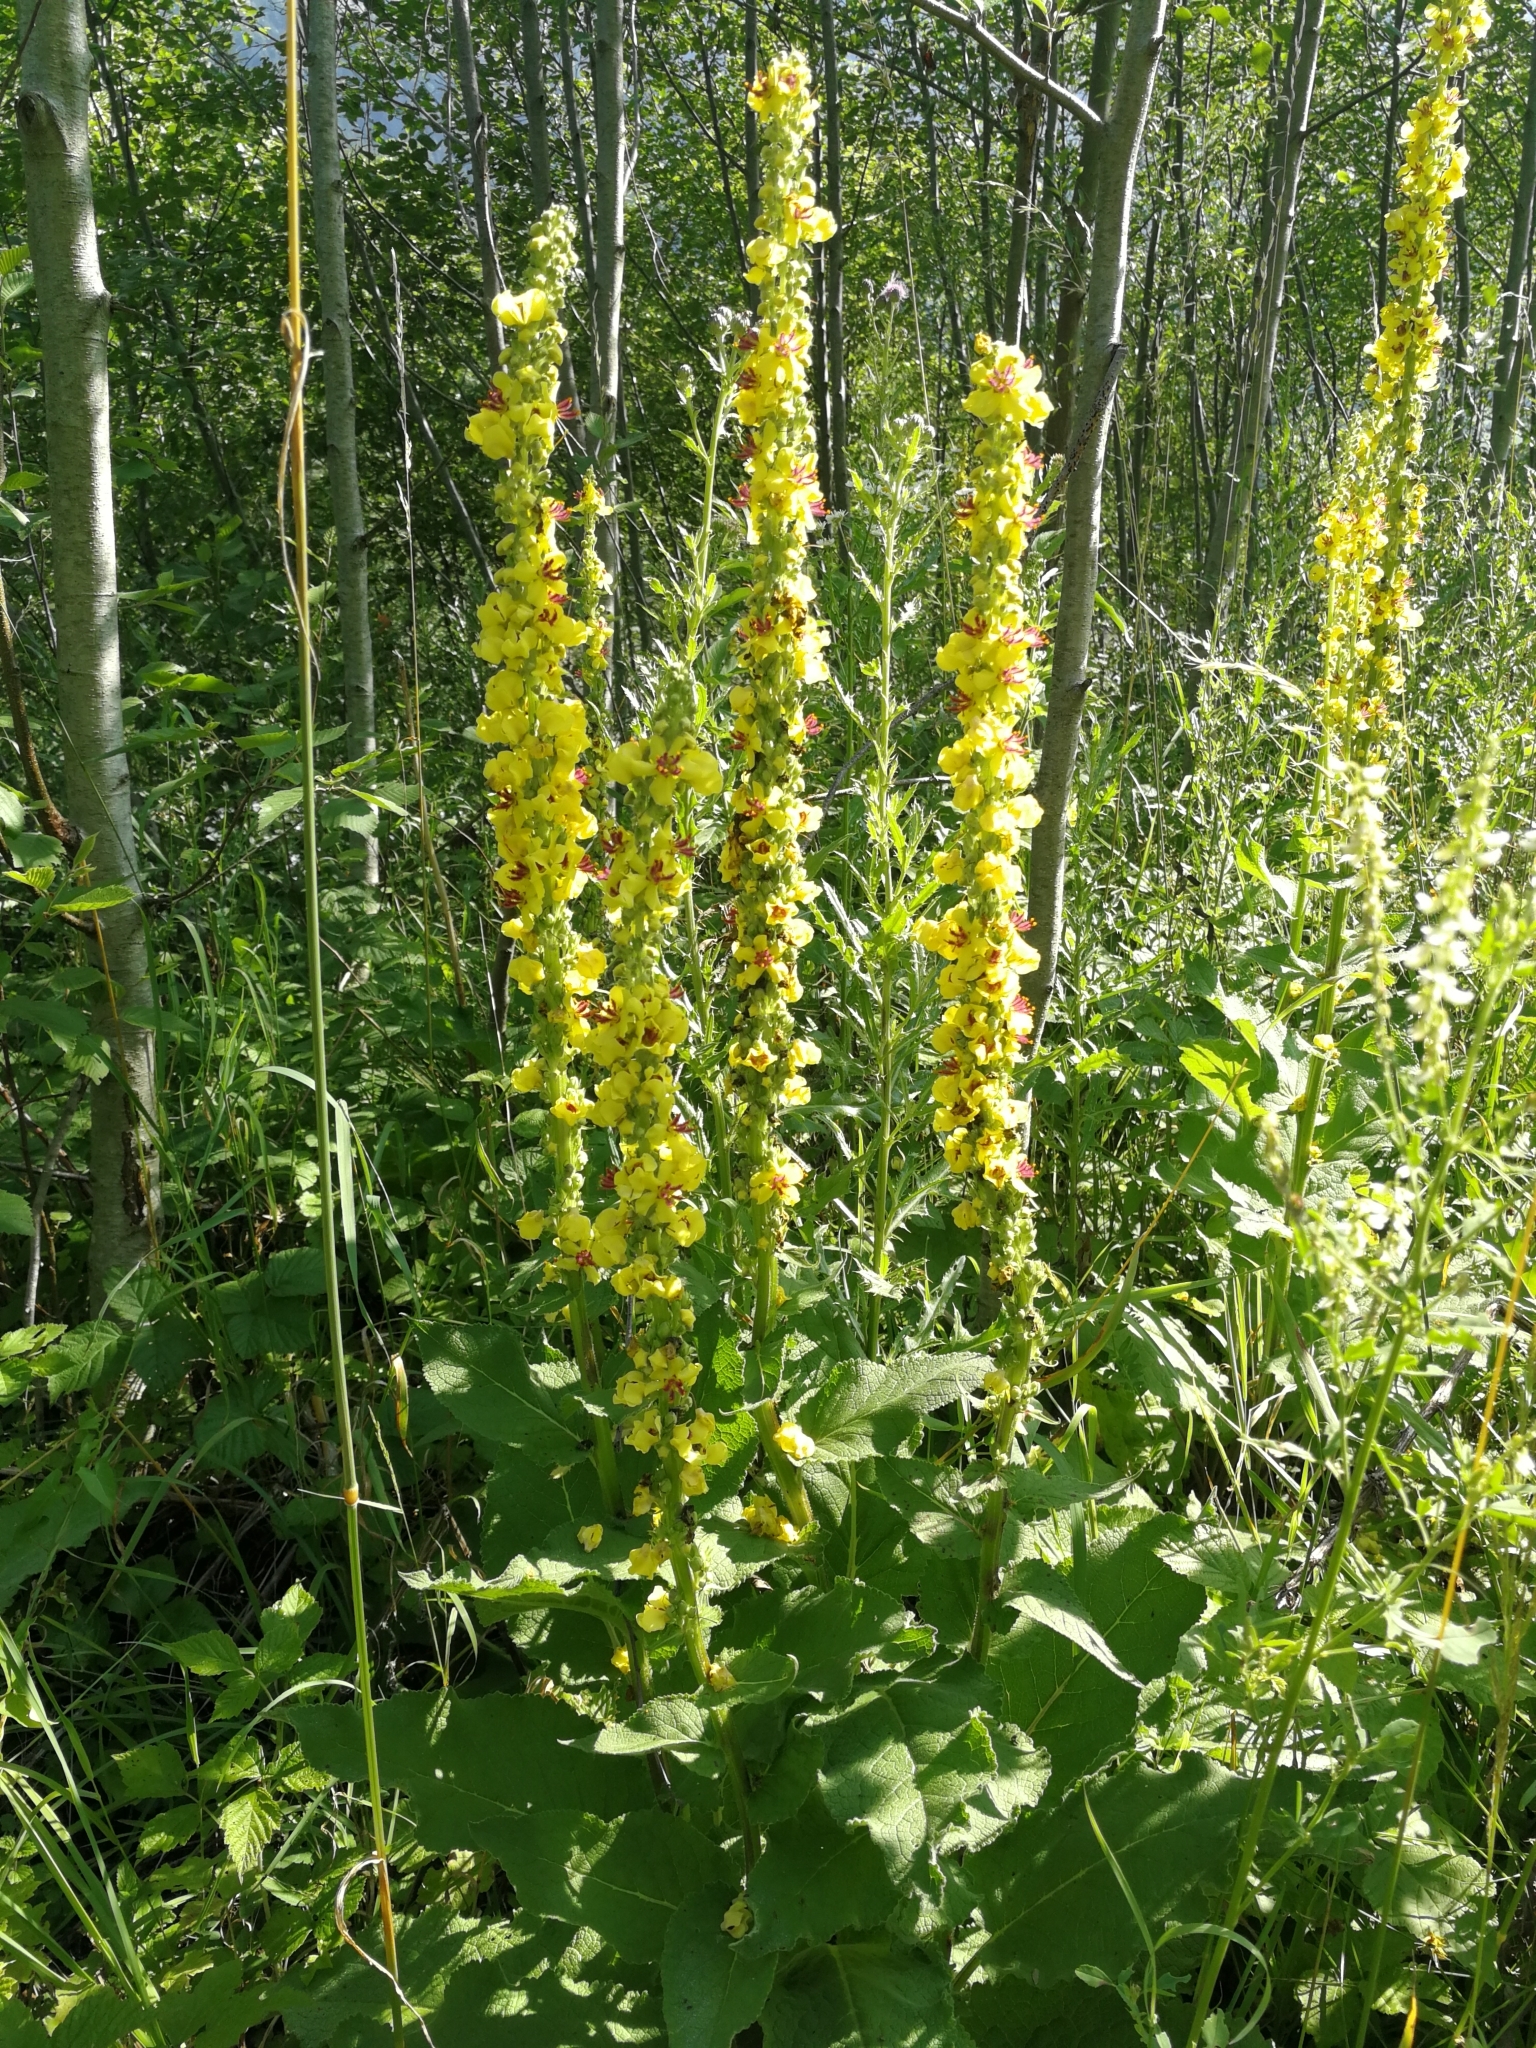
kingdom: Plantae
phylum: Tracheophyta
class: Magnoliopsida
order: Lamiales
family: Scrophulariaceae
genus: Verbascum
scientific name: Verbascum nigrum
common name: Dark mullein
